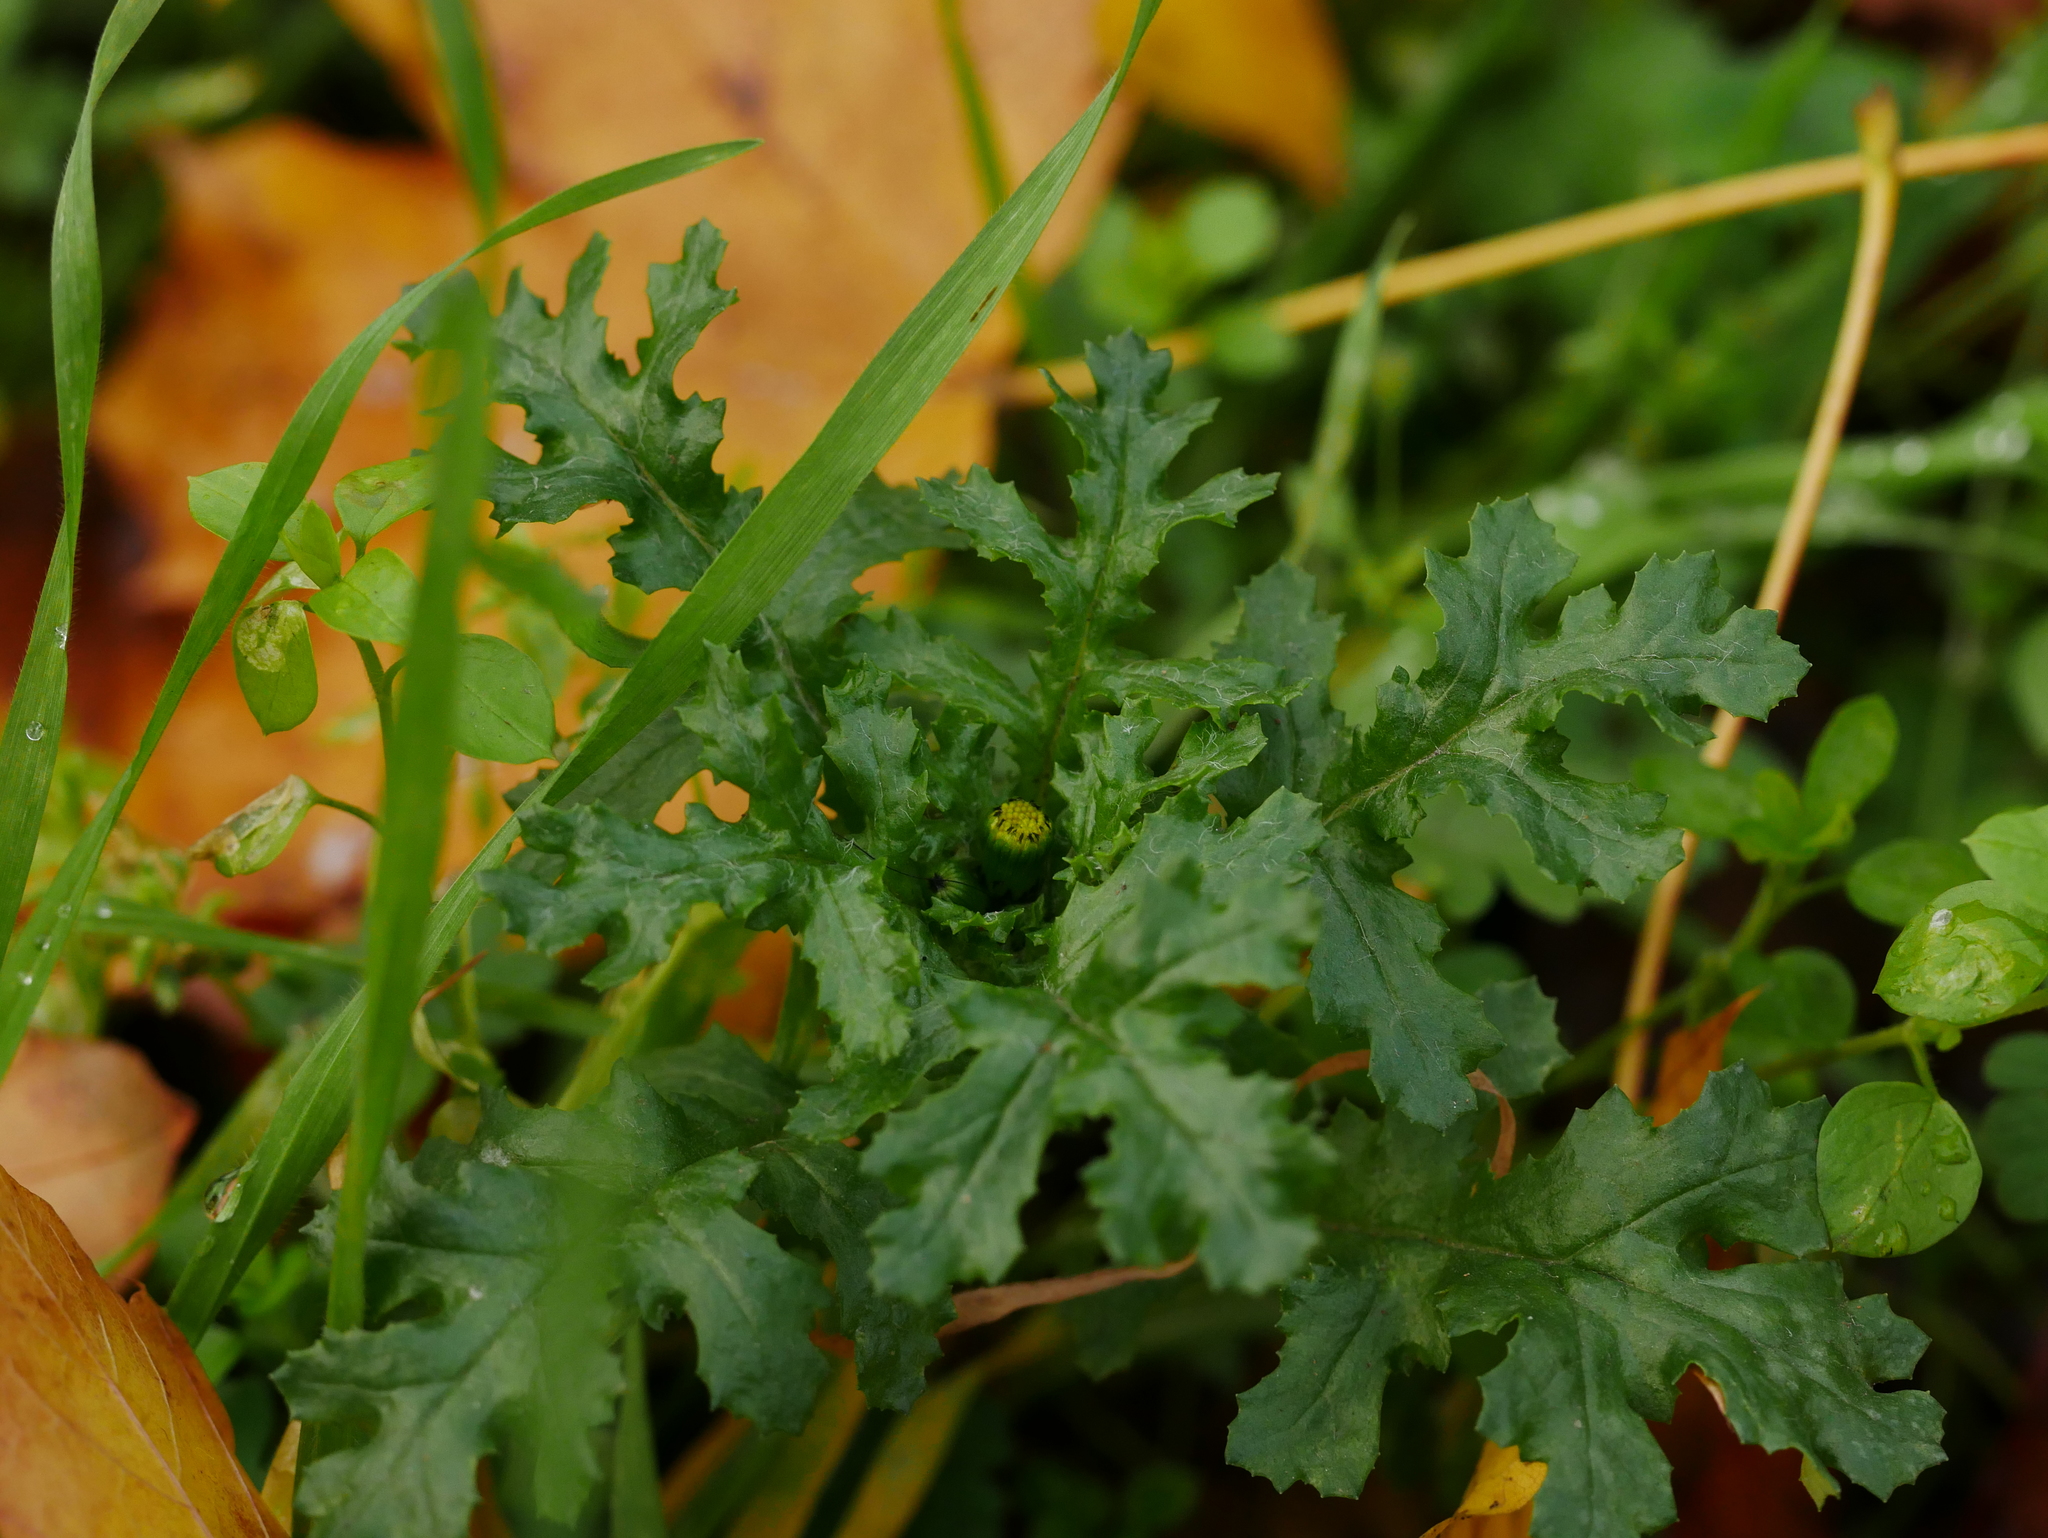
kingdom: Plantae
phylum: Tracheophyta
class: Magnoliopsida
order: Asterales
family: Asteraceae
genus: Senecio
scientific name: Senecio vulgaris
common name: Old-man-in-the-spring
